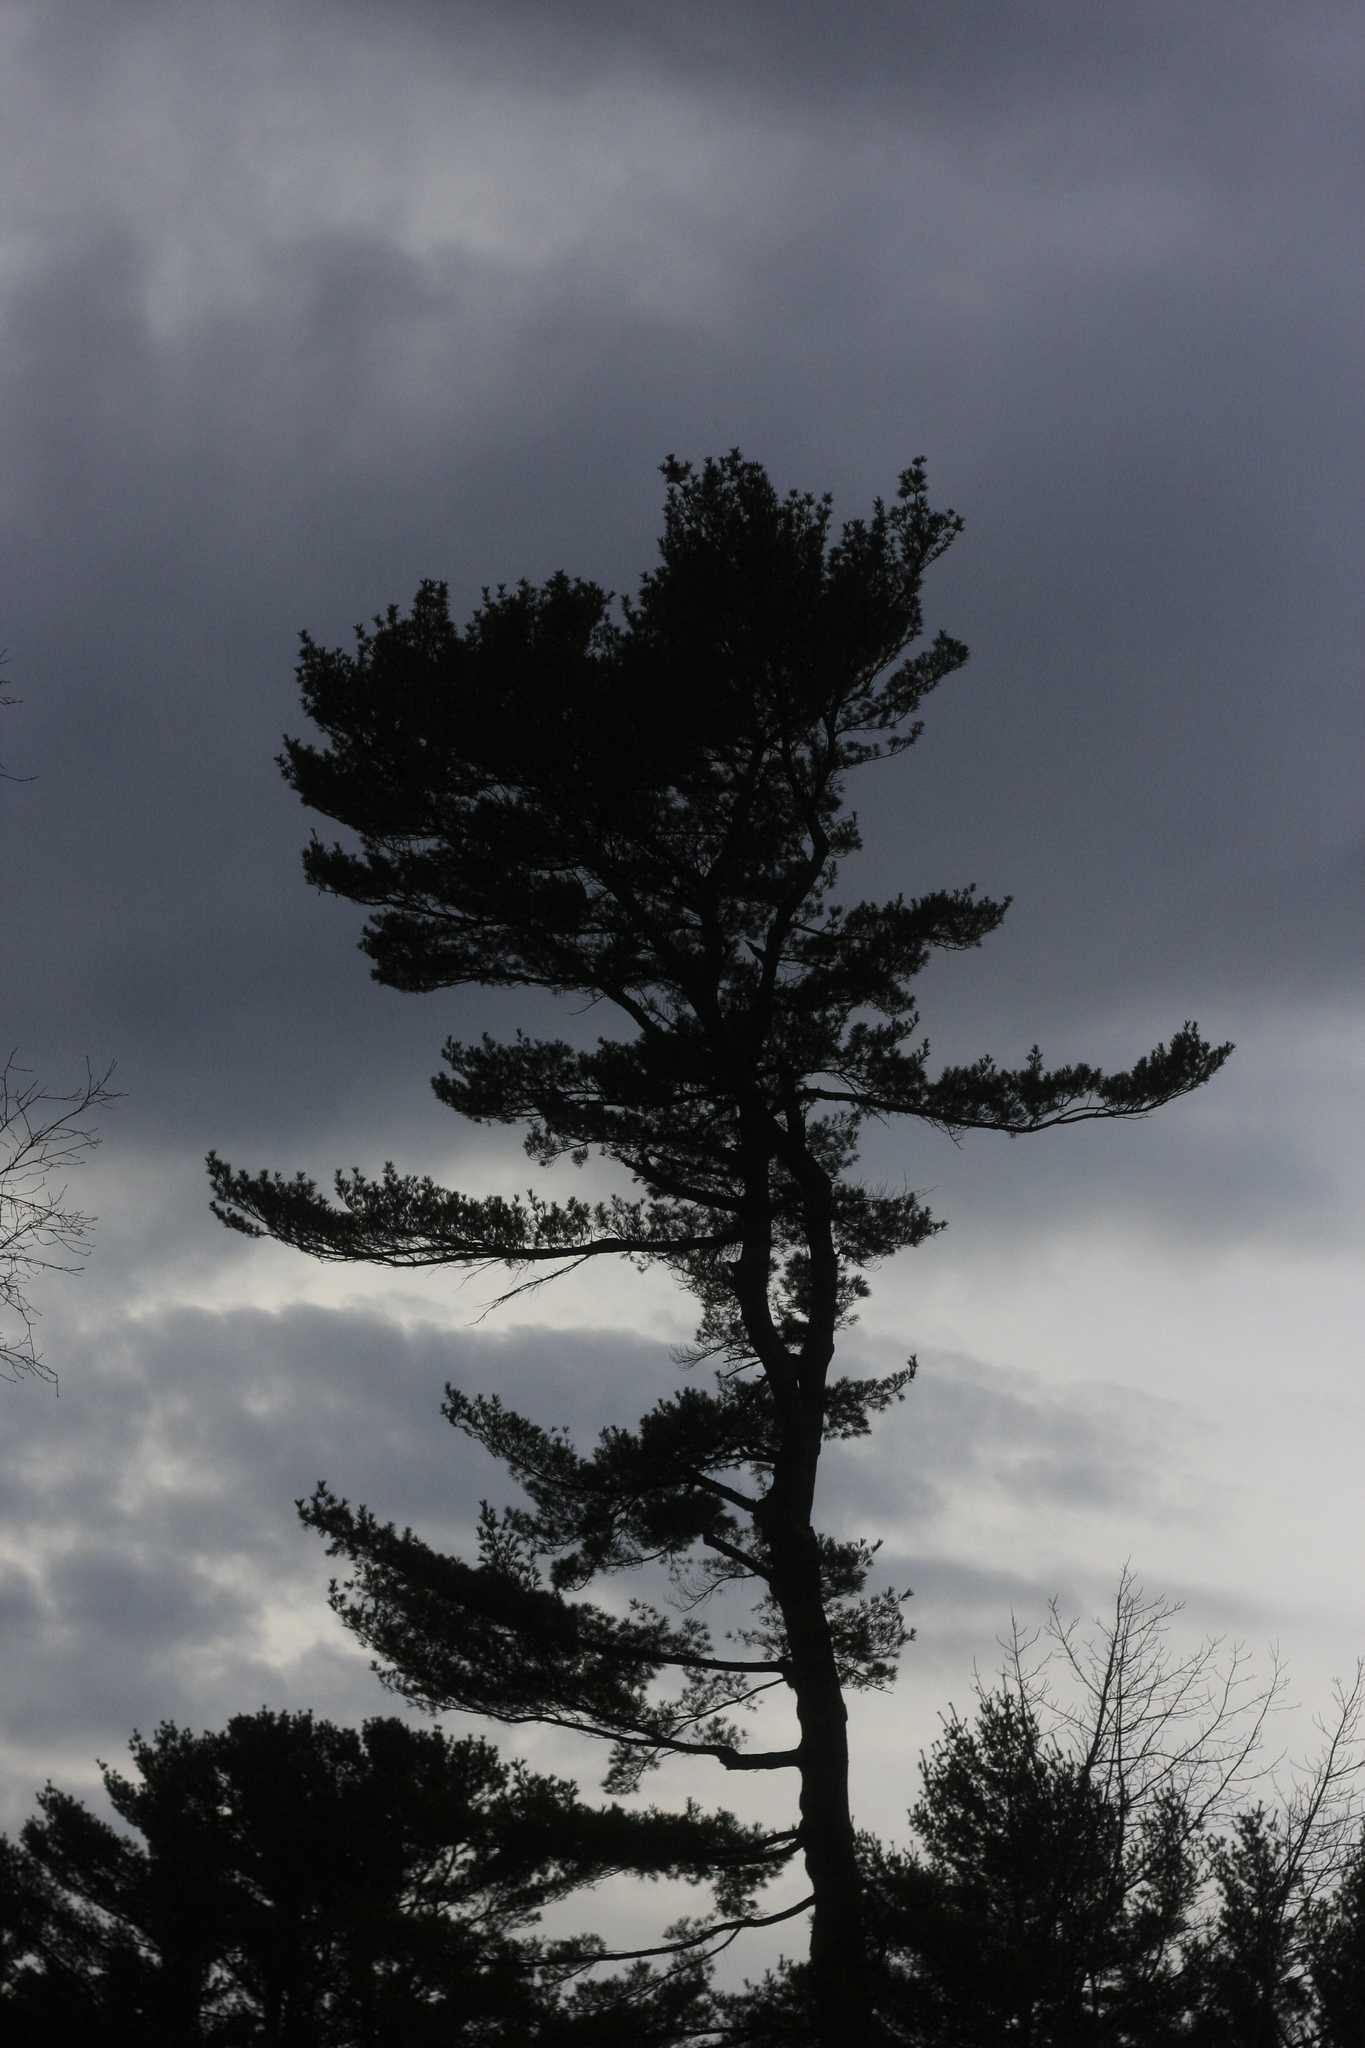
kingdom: Plantae
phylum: Tracheophyta
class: Pinopsida
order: Pinales
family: Pinaceae
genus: Pinus
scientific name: Pinus strobus
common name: Weymouth pine
